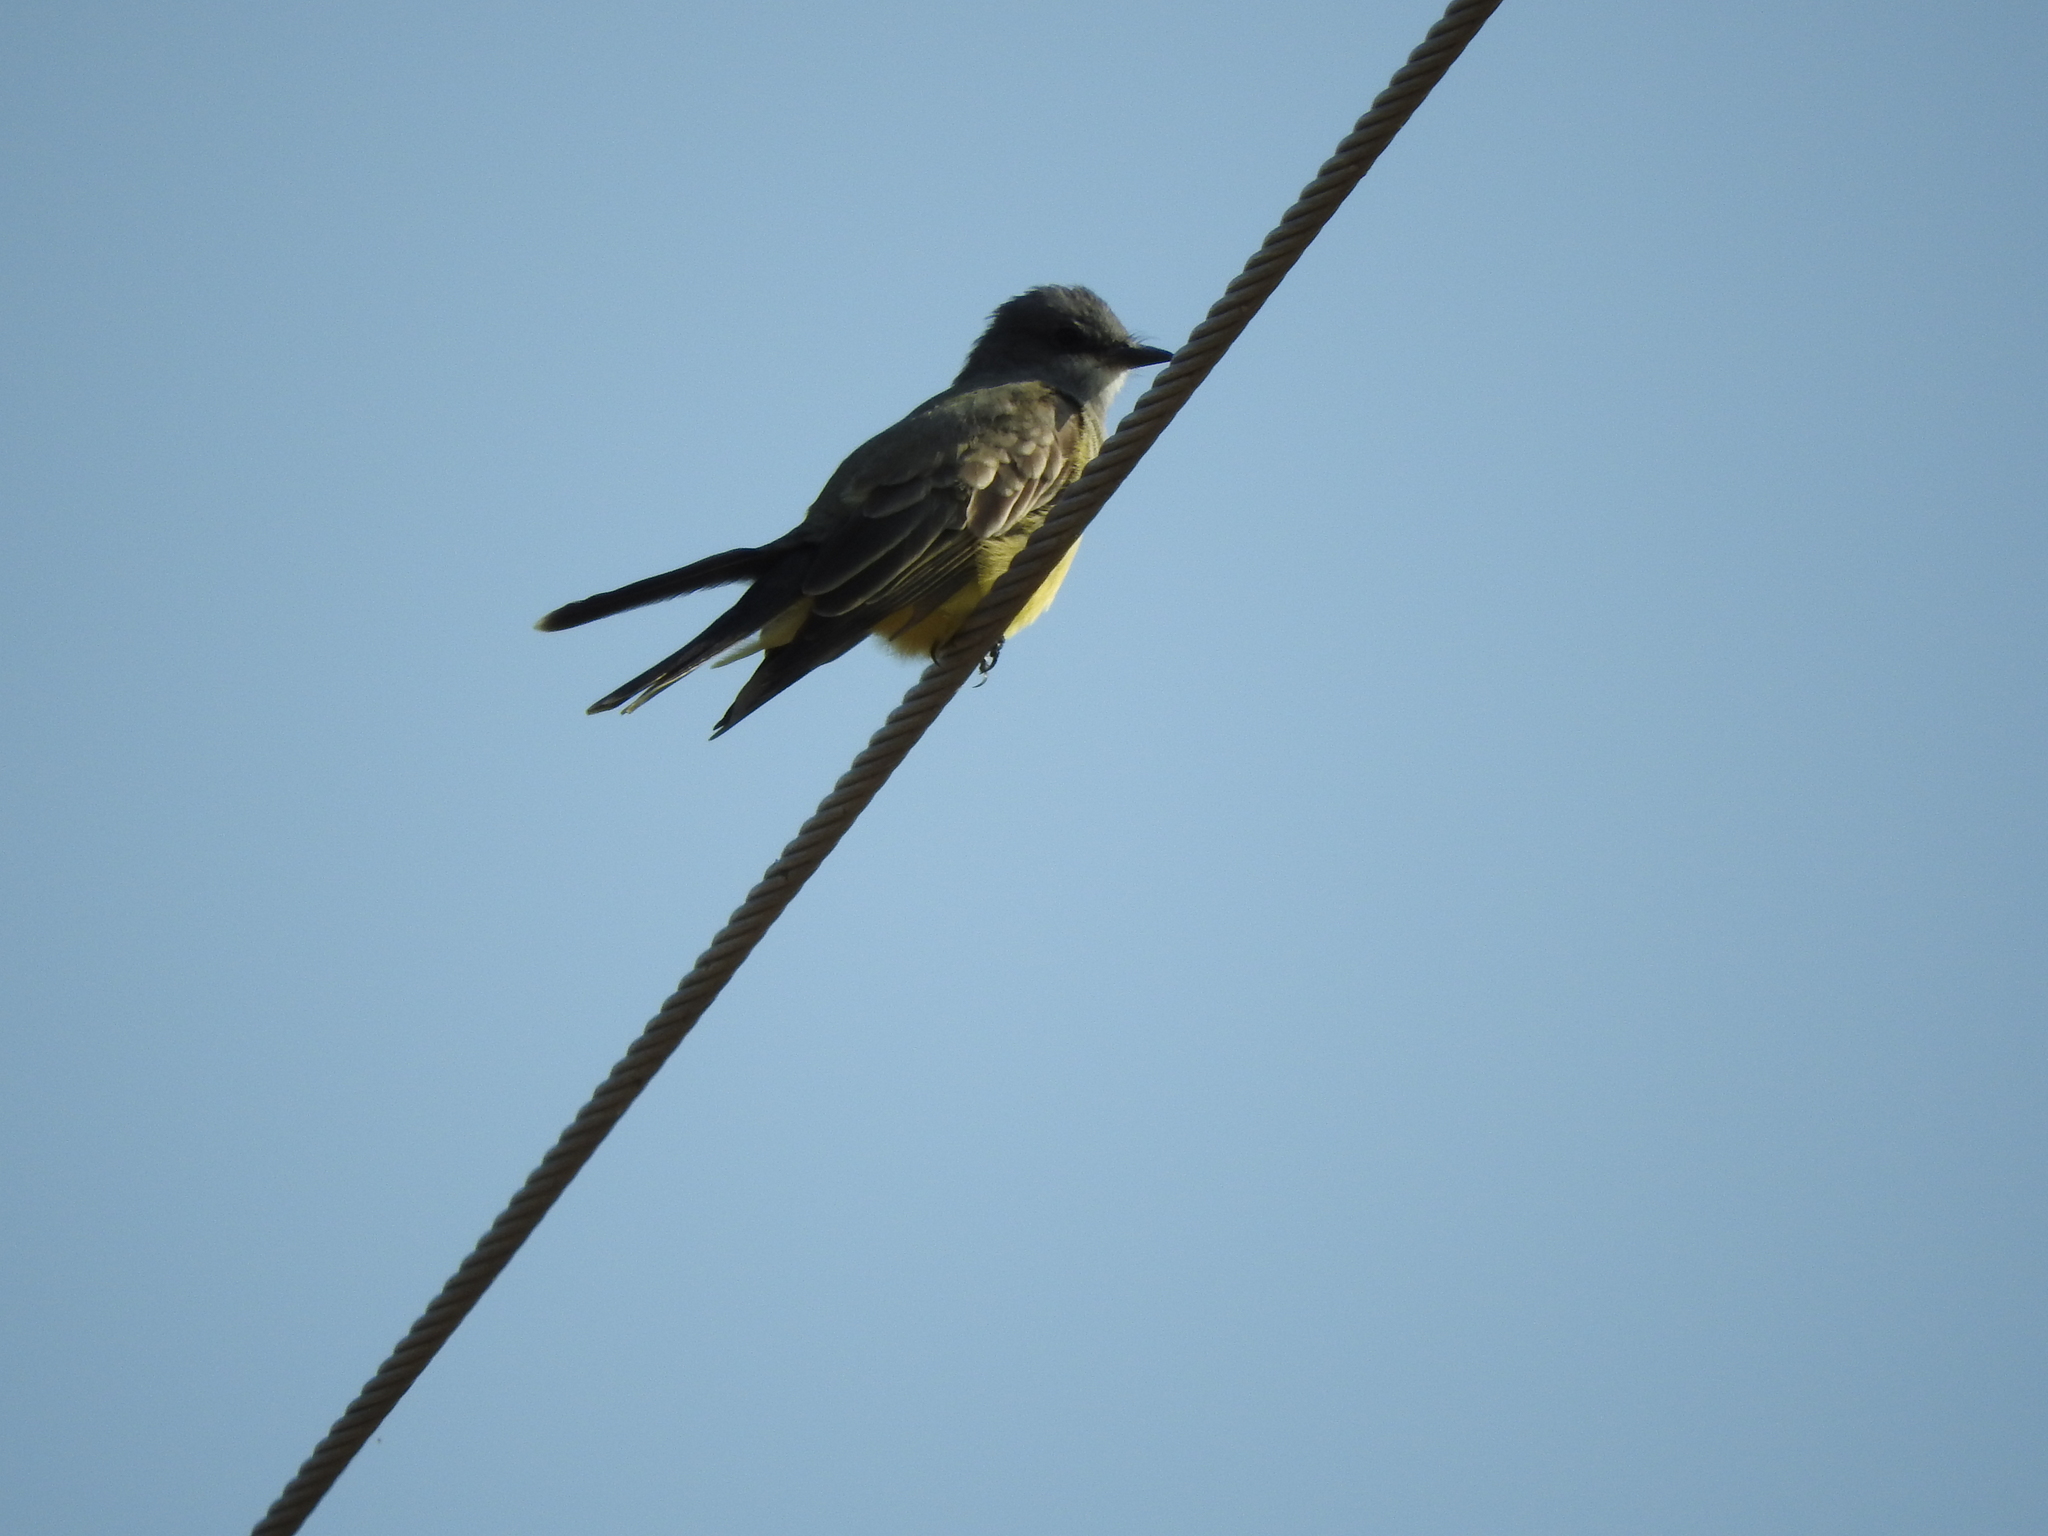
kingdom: Animalia
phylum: Chordata
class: Aves
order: Passeriformes
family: Tyrannidae
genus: Tyrannus
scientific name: Tyrannus vociferans
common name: Cassin's kingbird
